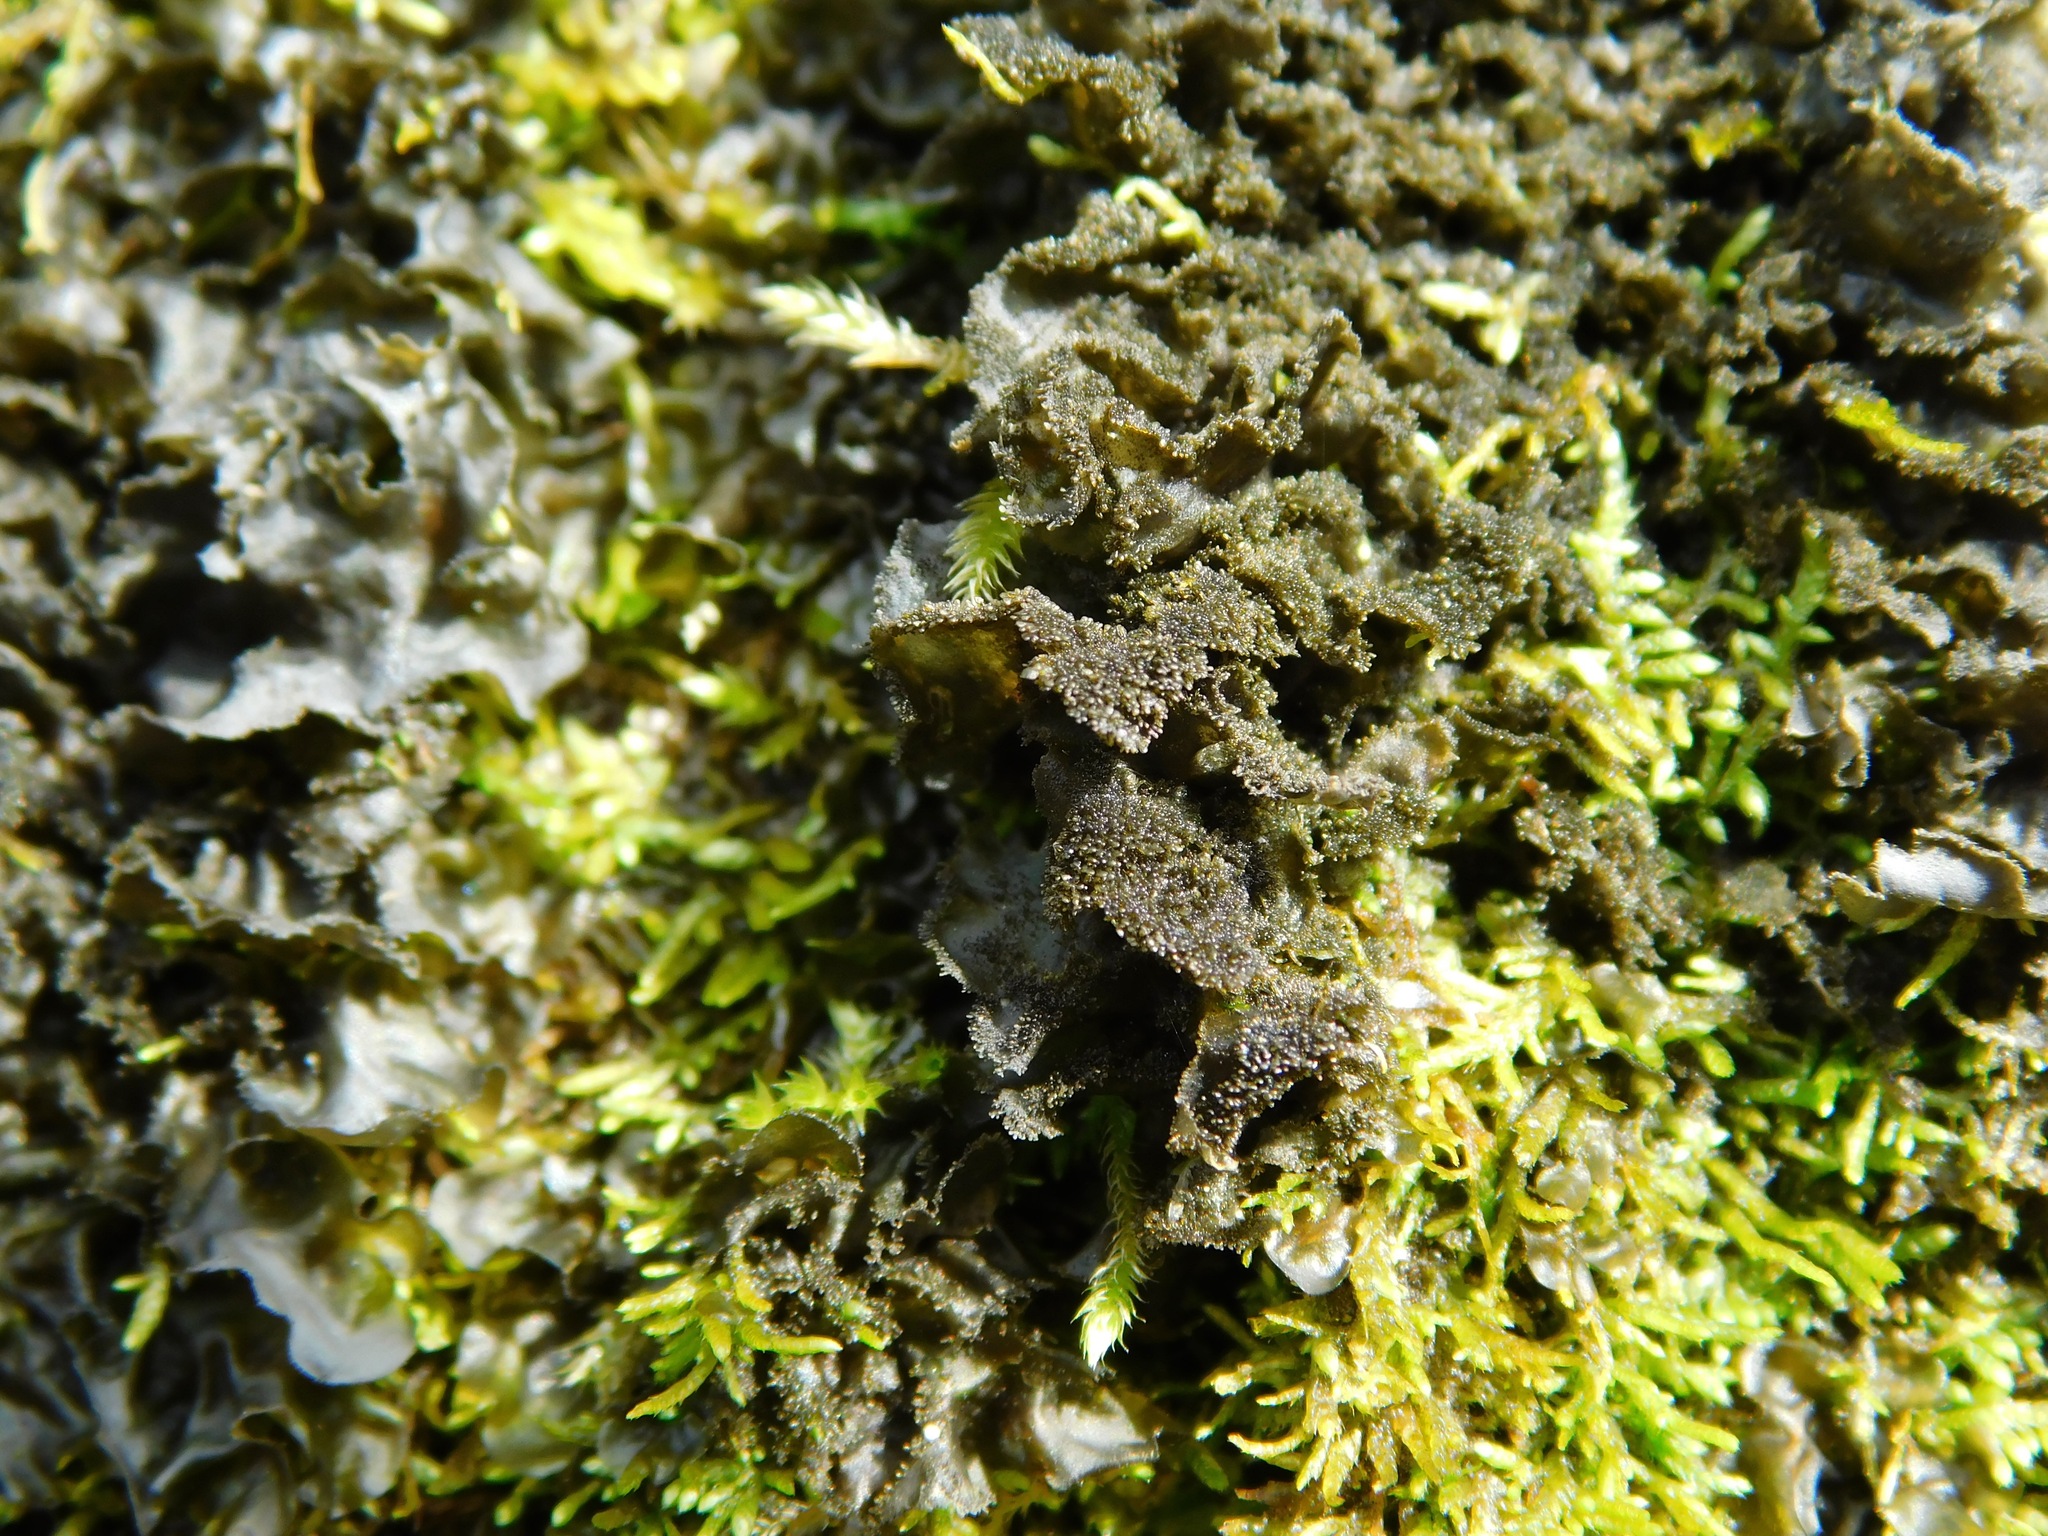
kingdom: Fungi
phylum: Ascomycota
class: Lecanoromycetes
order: Peltigerales
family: Collemataceae
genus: Leptogium
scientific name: Leptogium cyanescens
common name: Blue jellyskin
